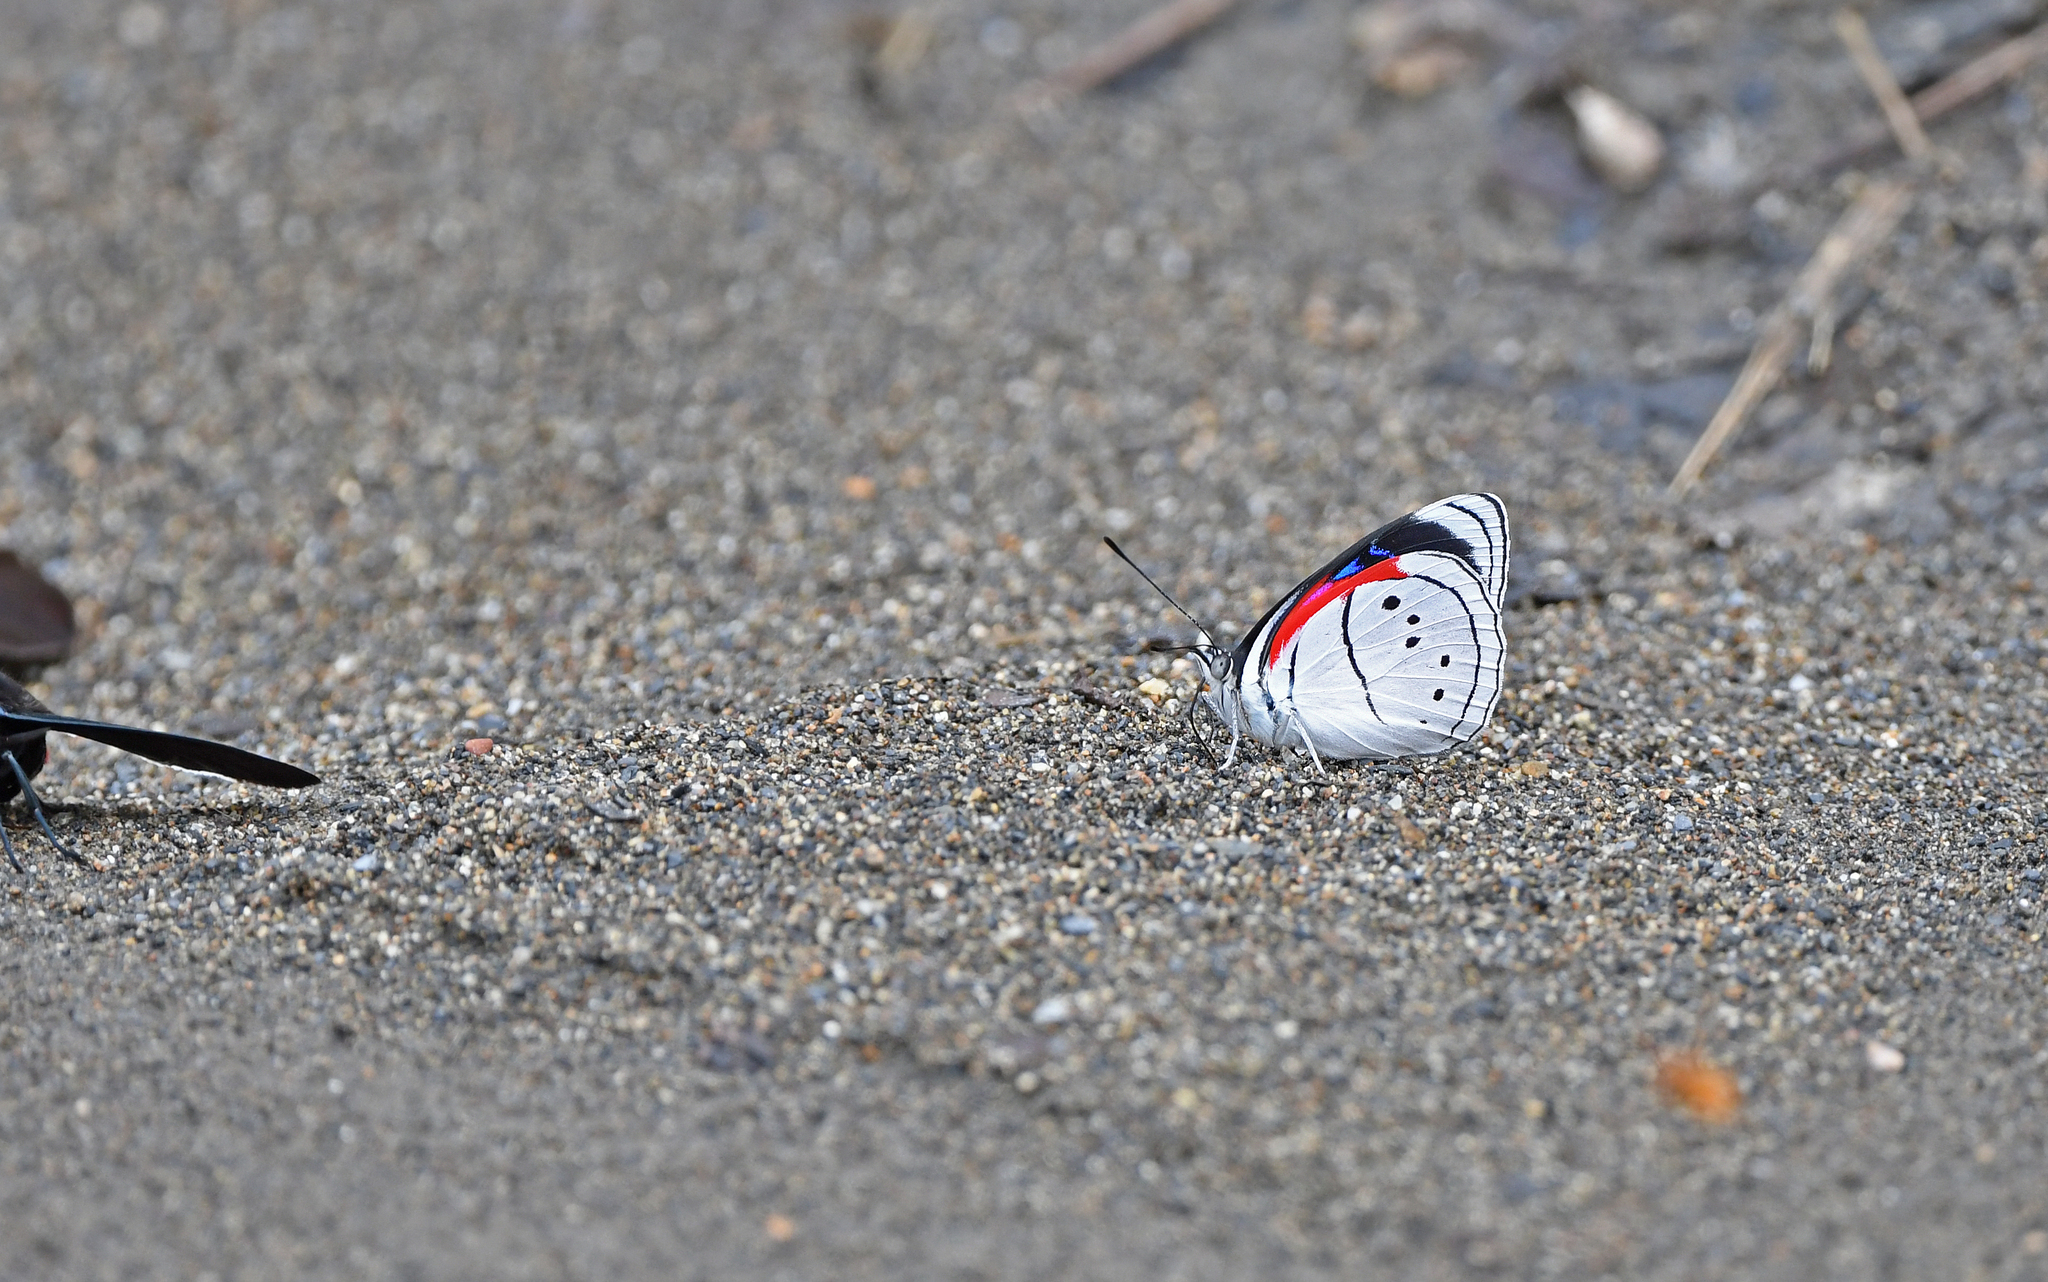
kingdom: Animalia
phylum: Arthropoda
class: Insecta
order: Lepidoptera
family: Nymphalidae
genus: Perisama
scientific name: Perisama Mesotaenia vaninka
